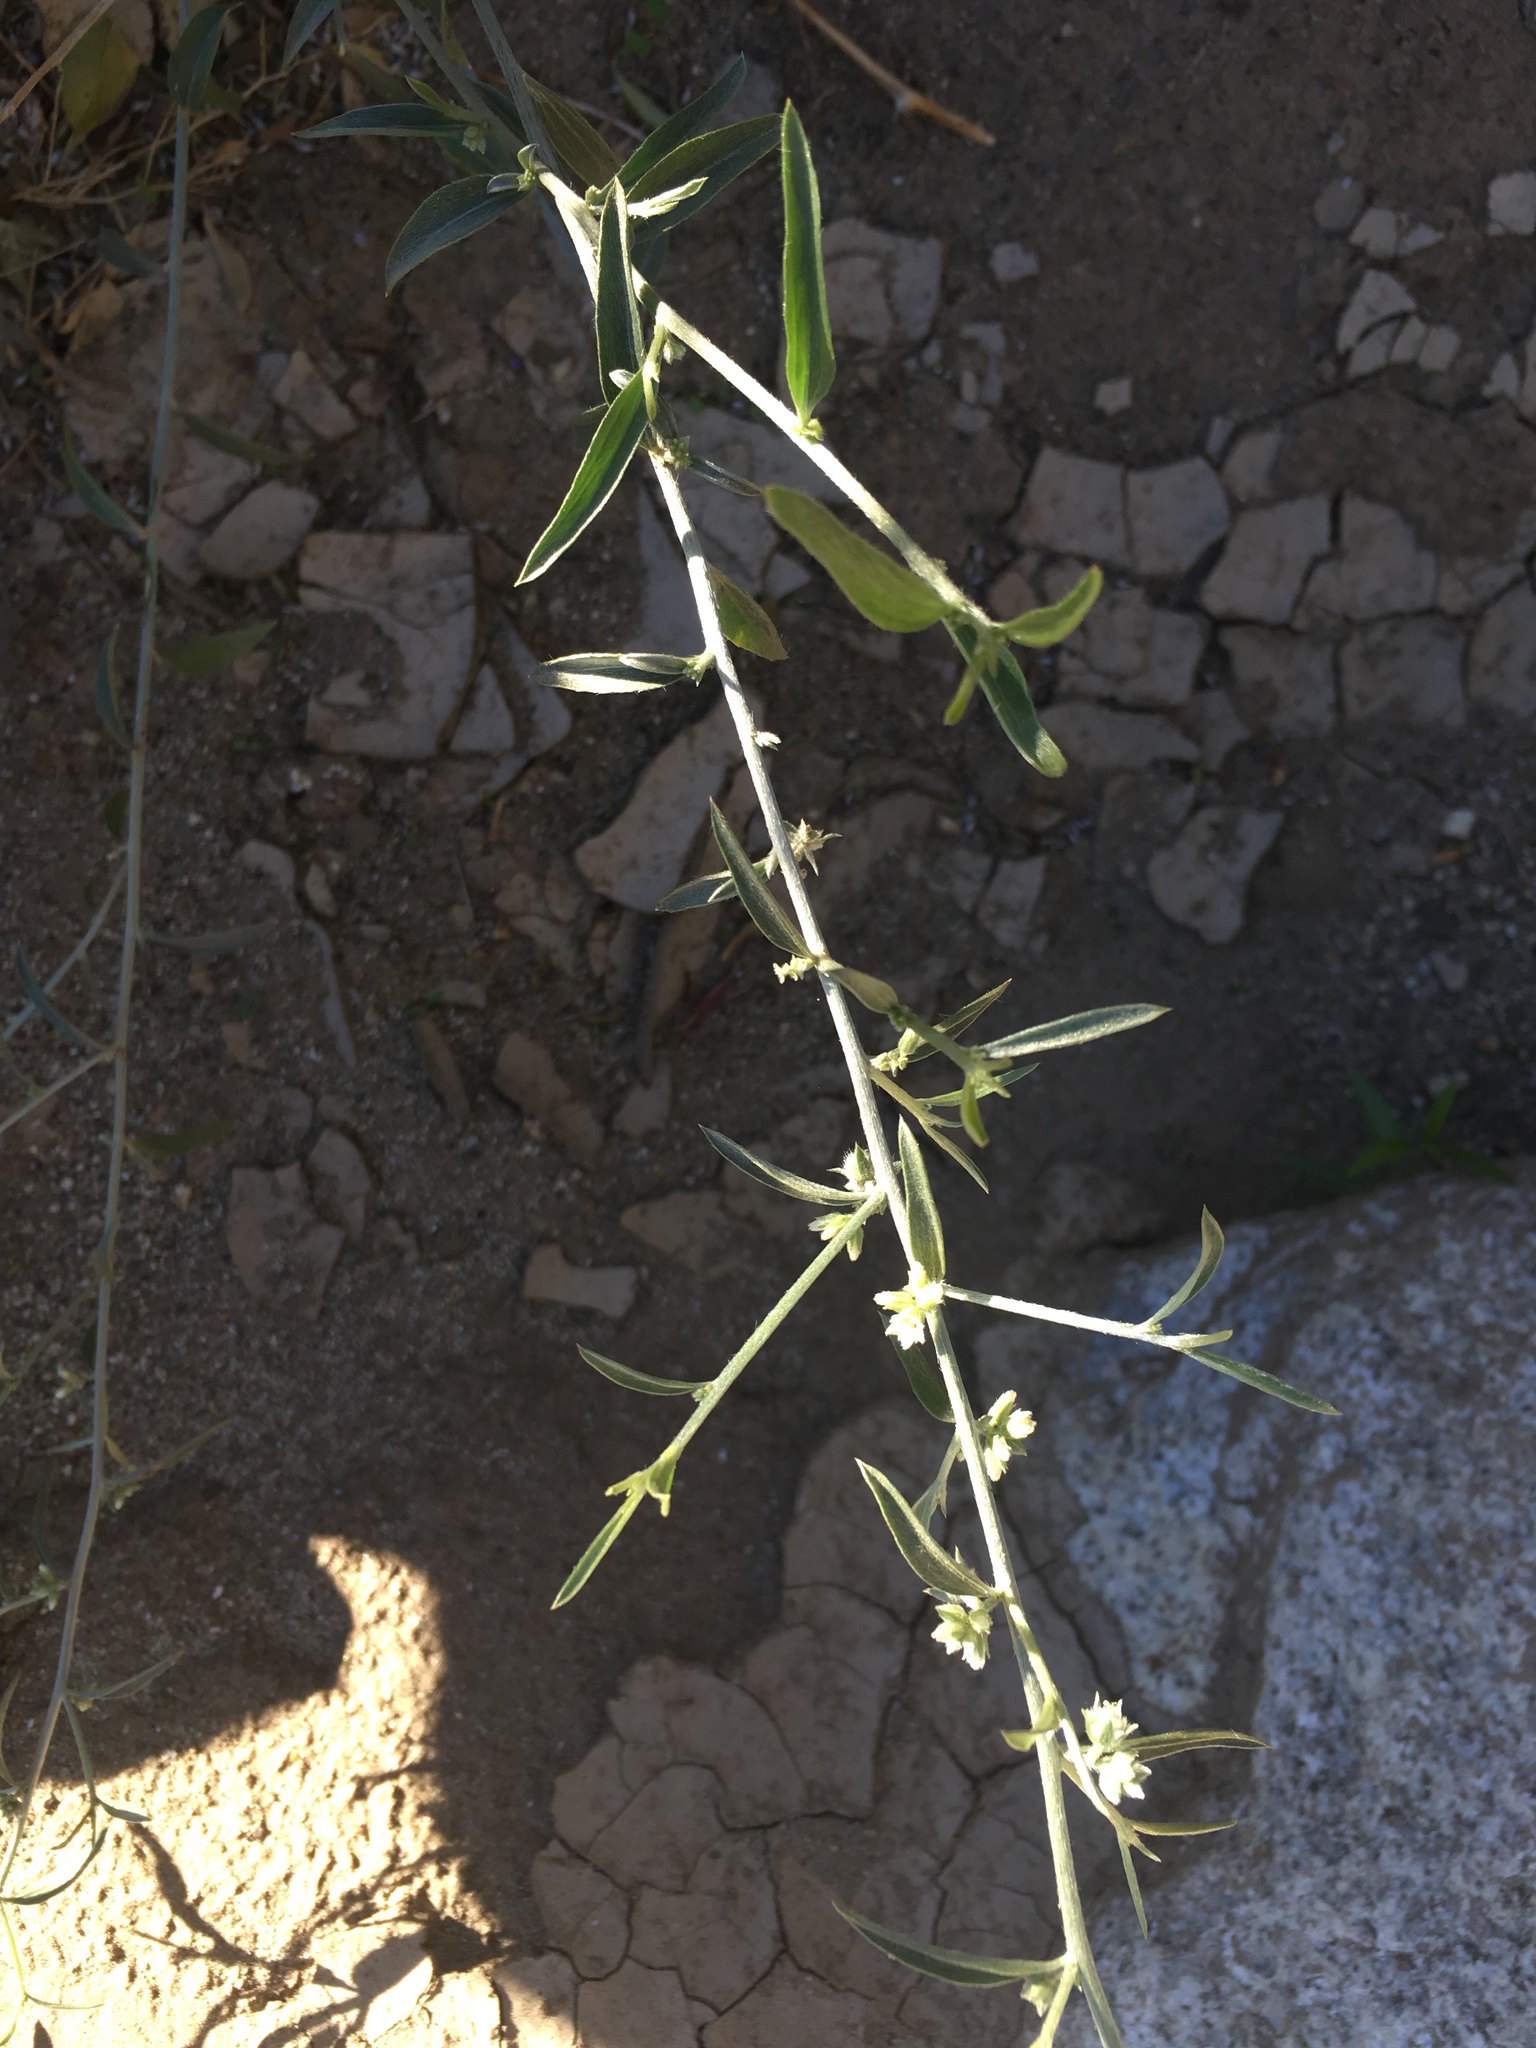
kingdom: Plantae
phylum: Tracheophyta
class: Magnoliopsida
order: Malpighiales
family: Euphorbiaceae
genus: Ditaxis
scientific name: Ditaxis lanceolata
